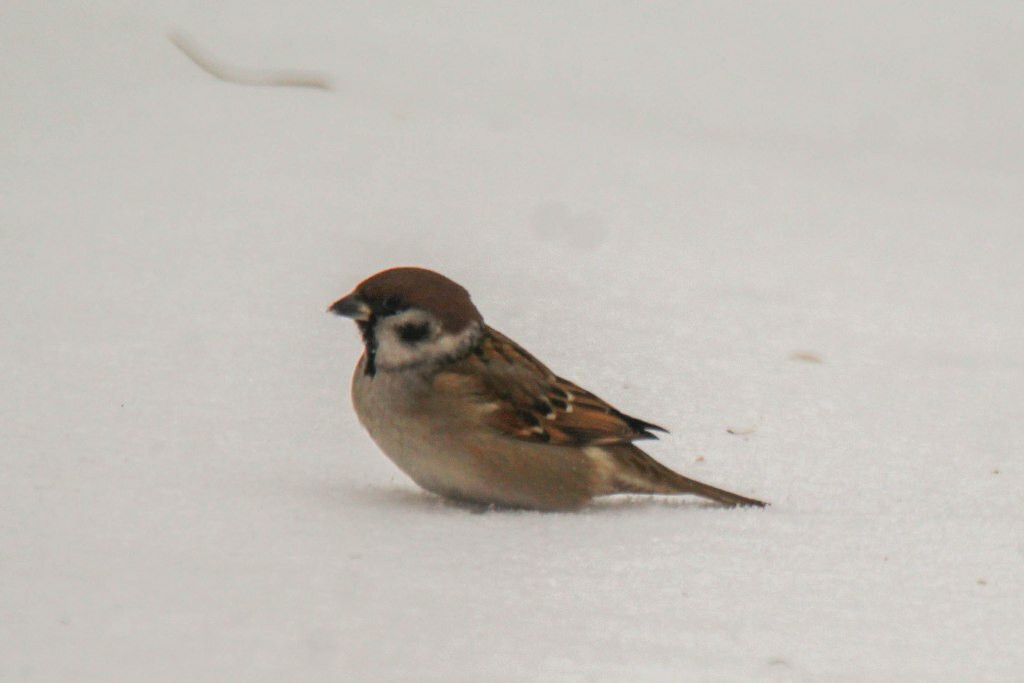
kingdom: Animalia
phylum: Chordata
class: Aves
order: Passeriformes
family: Passeridae
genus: Passer
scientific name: Passer montanus
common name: Eurasian tree sparrow
